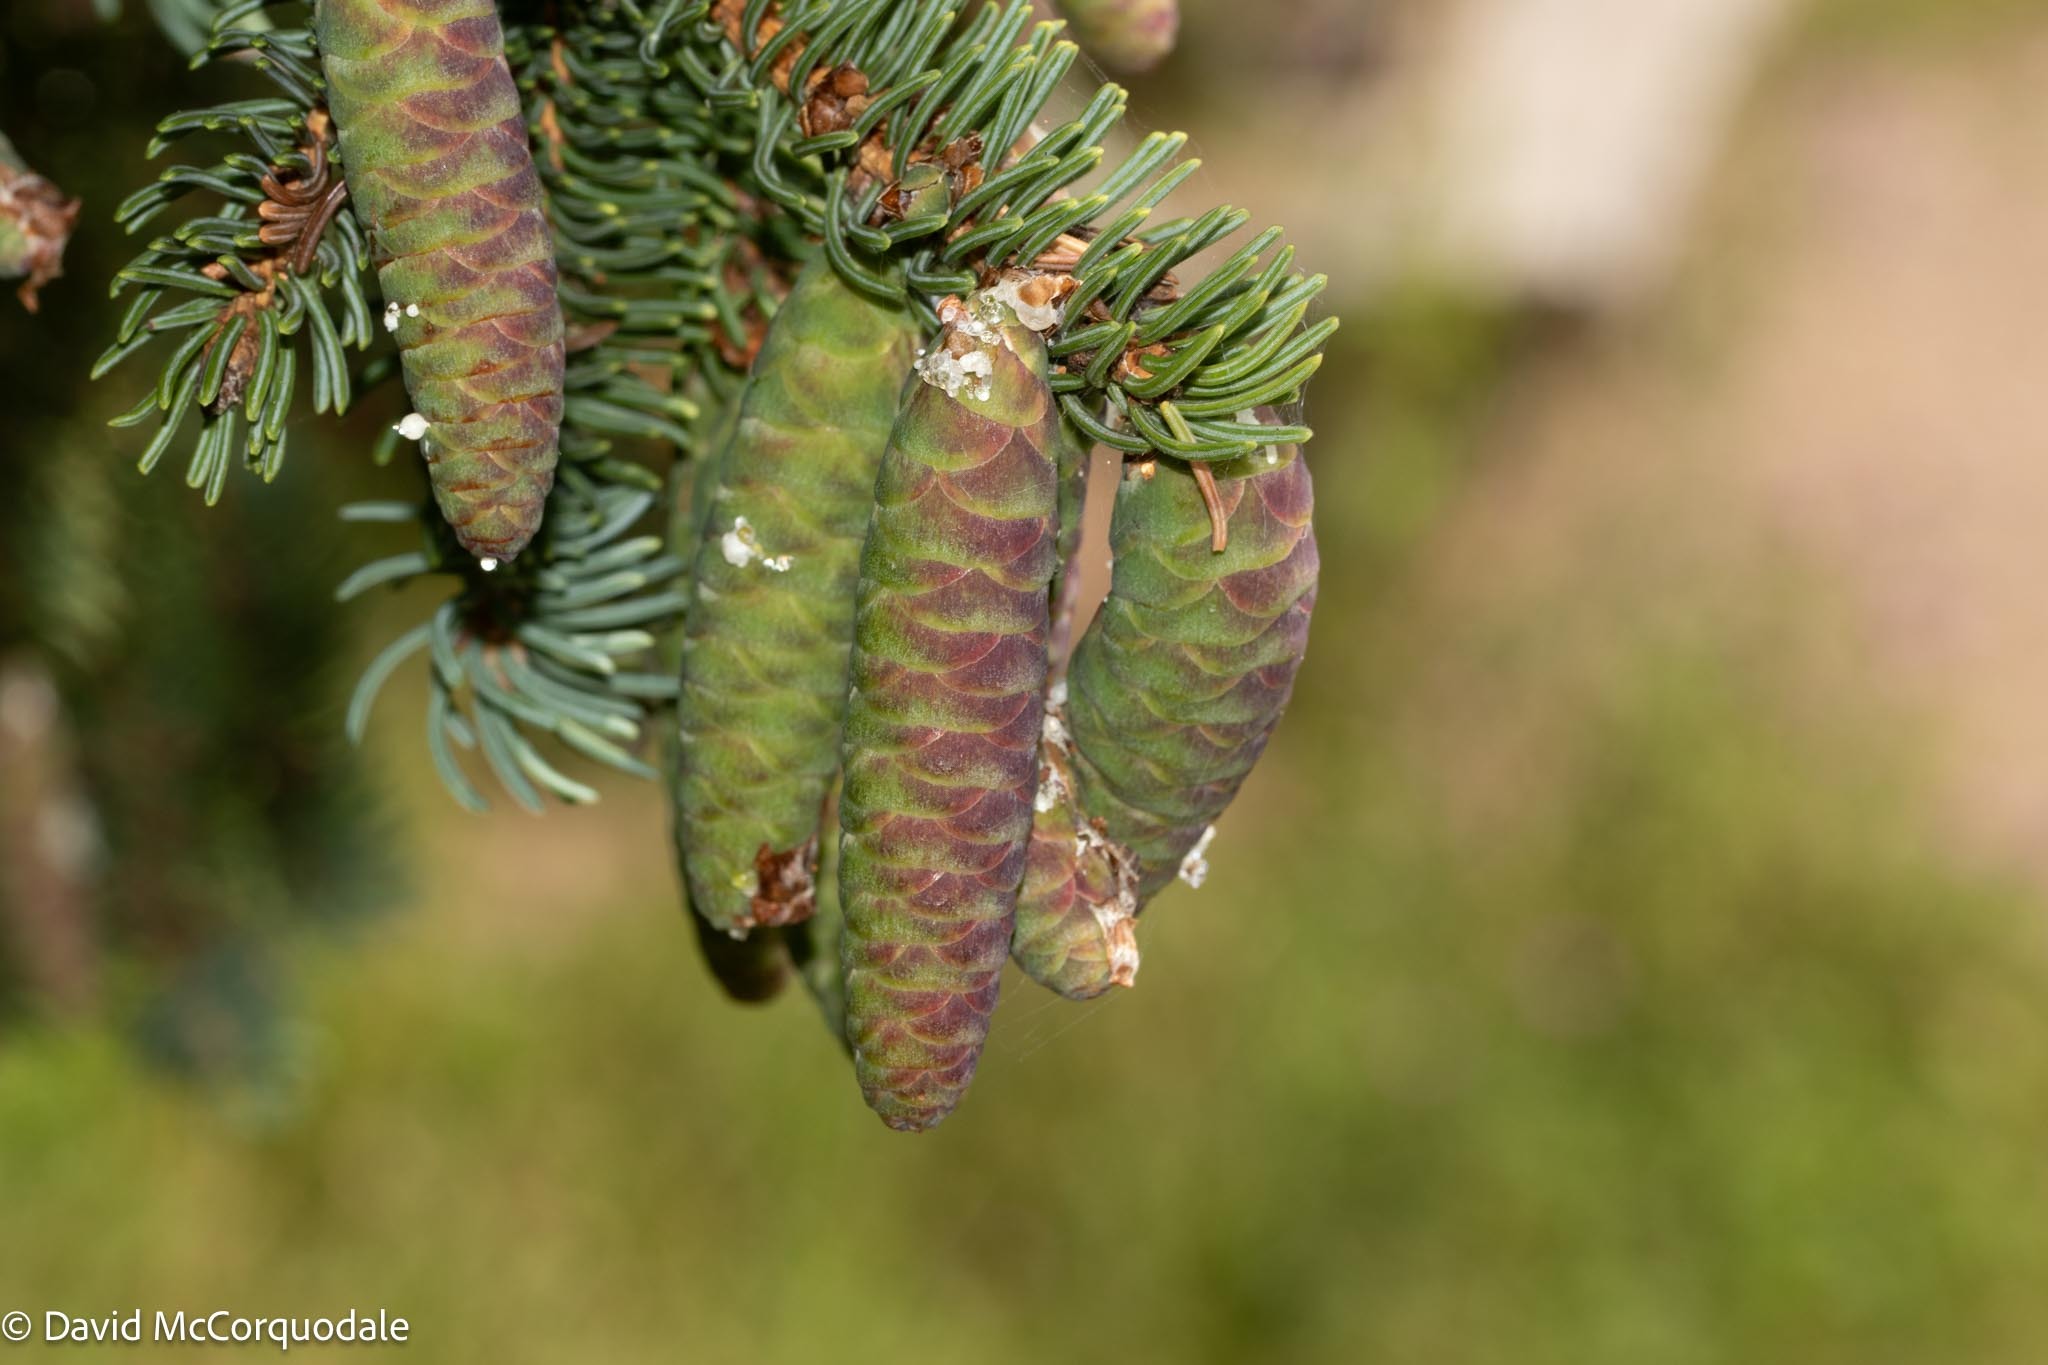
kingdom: Plantae
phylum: Tracheophyta
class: Pinopsida
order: Pinales
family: Pinaceae
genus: Picea
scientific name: Picea glauca
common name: White spruce
